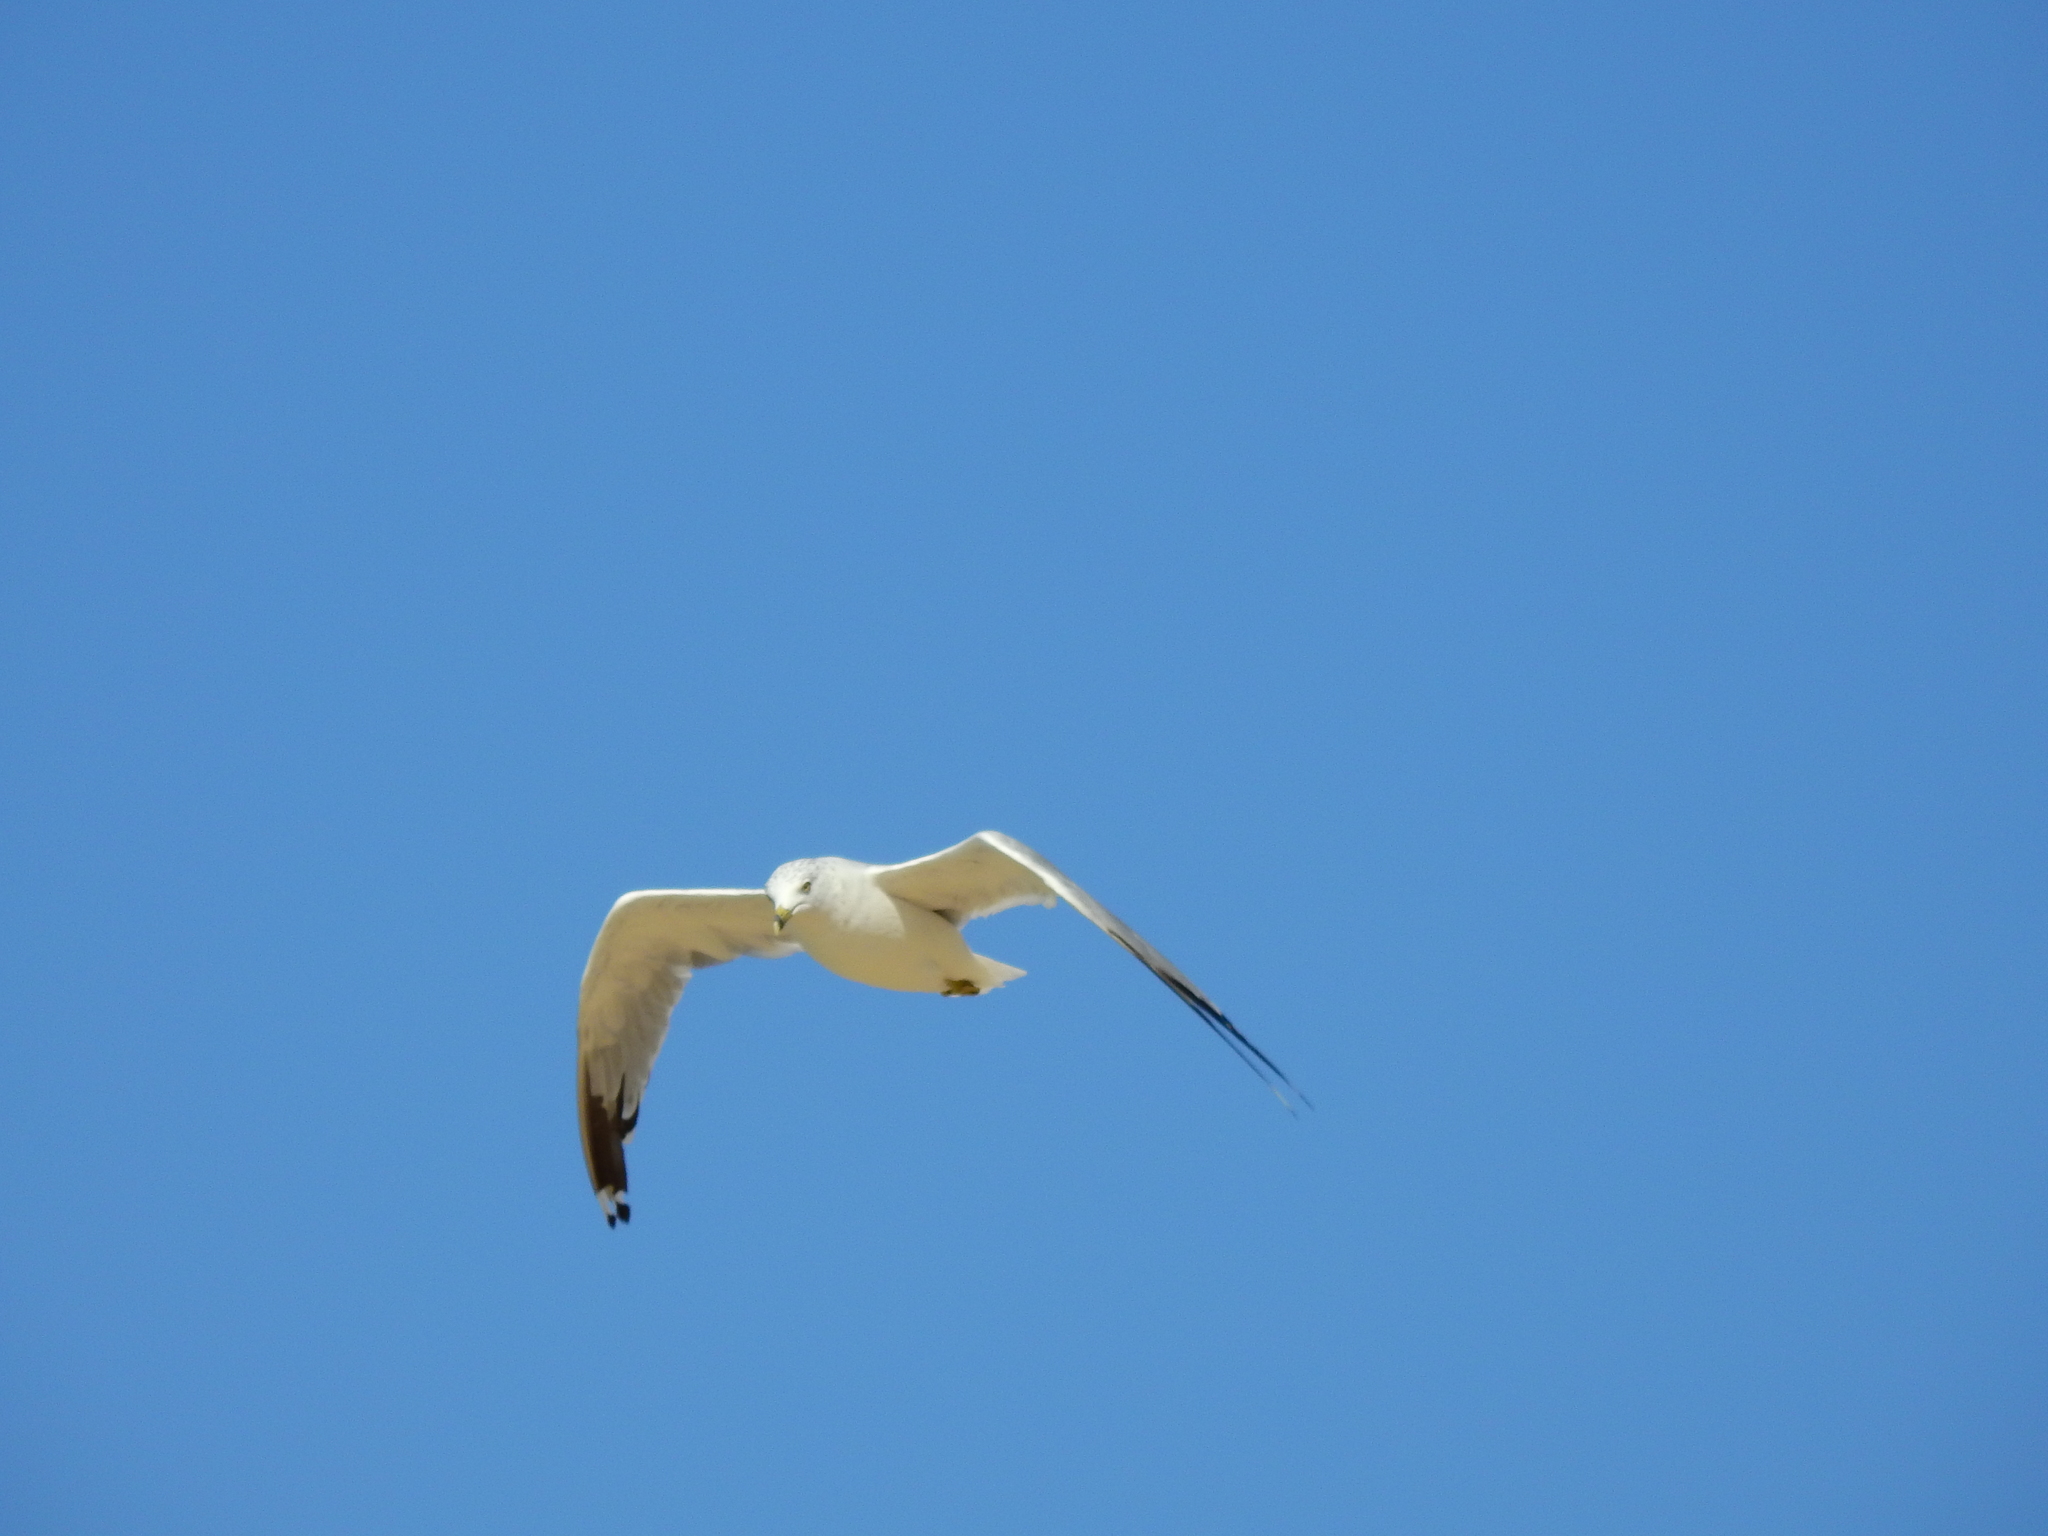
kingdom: Animalia
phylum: Chordata
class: Aves
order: Charadriiformes
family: Laridae
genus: Larus
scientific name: Larus delawarensis
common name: Ring-billed gull
